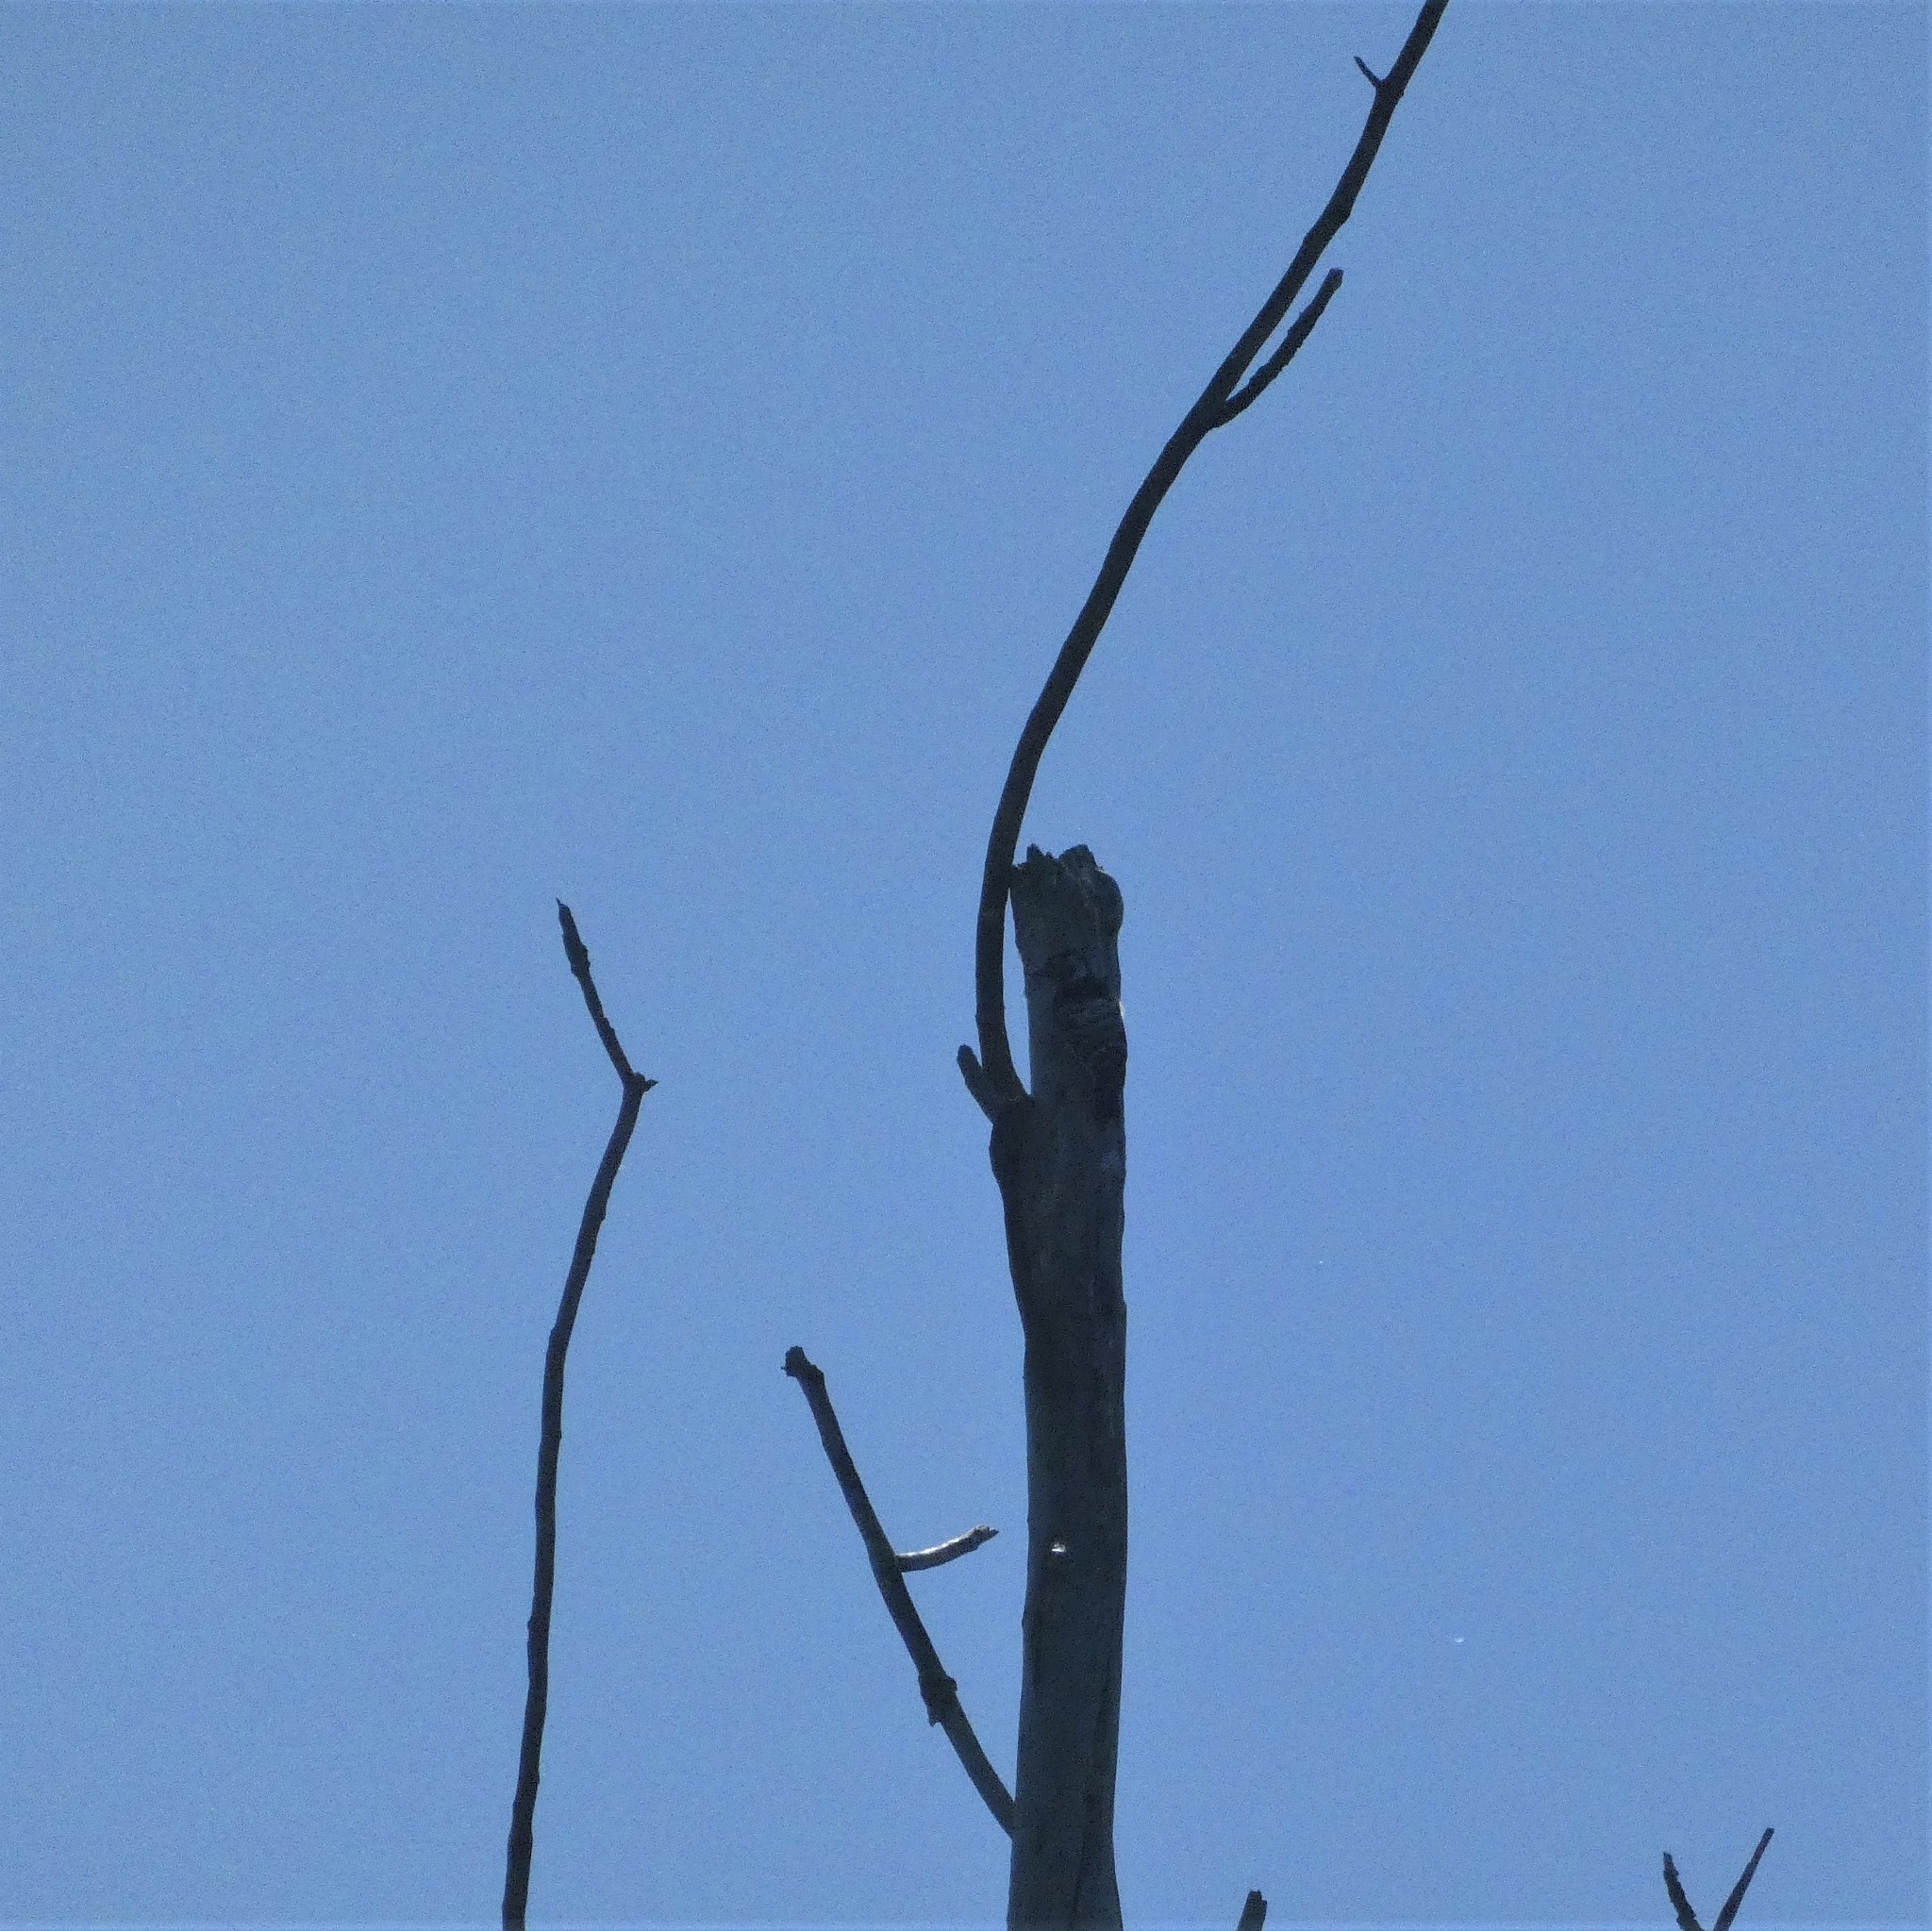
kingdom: Animalia
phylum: Chordata
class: Aves
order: Piciformes
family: Picidae
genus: Dryobates
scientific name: Dryobates minor
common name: Lesser spotted woodpecker
